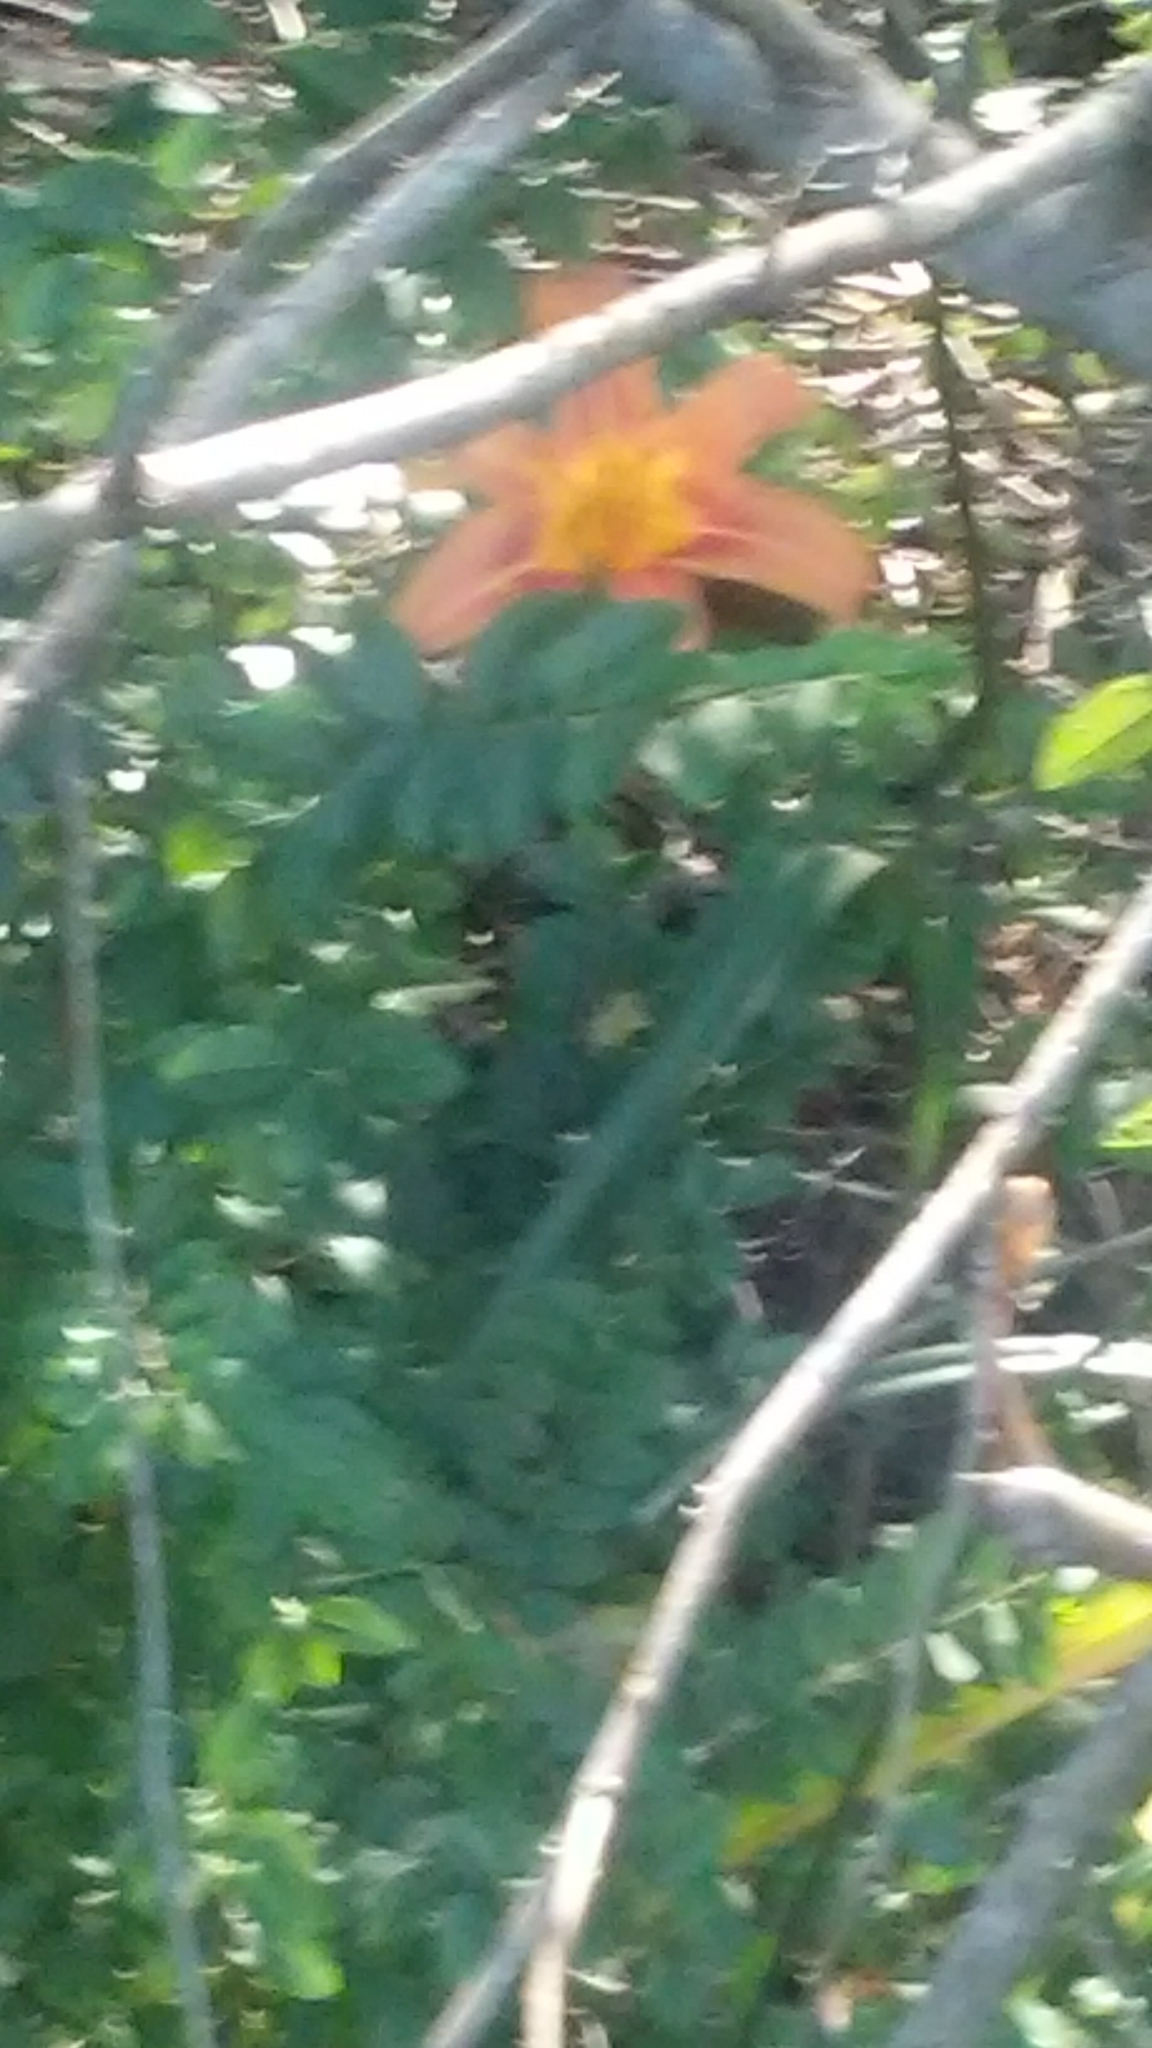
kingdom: Plantae
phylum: Tracheophyta
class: Liliopsida
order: Asparagales
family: Asphodelaceae
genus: Hemerocallis
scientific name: Hemerocallis fulva
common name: Orange day-lily
